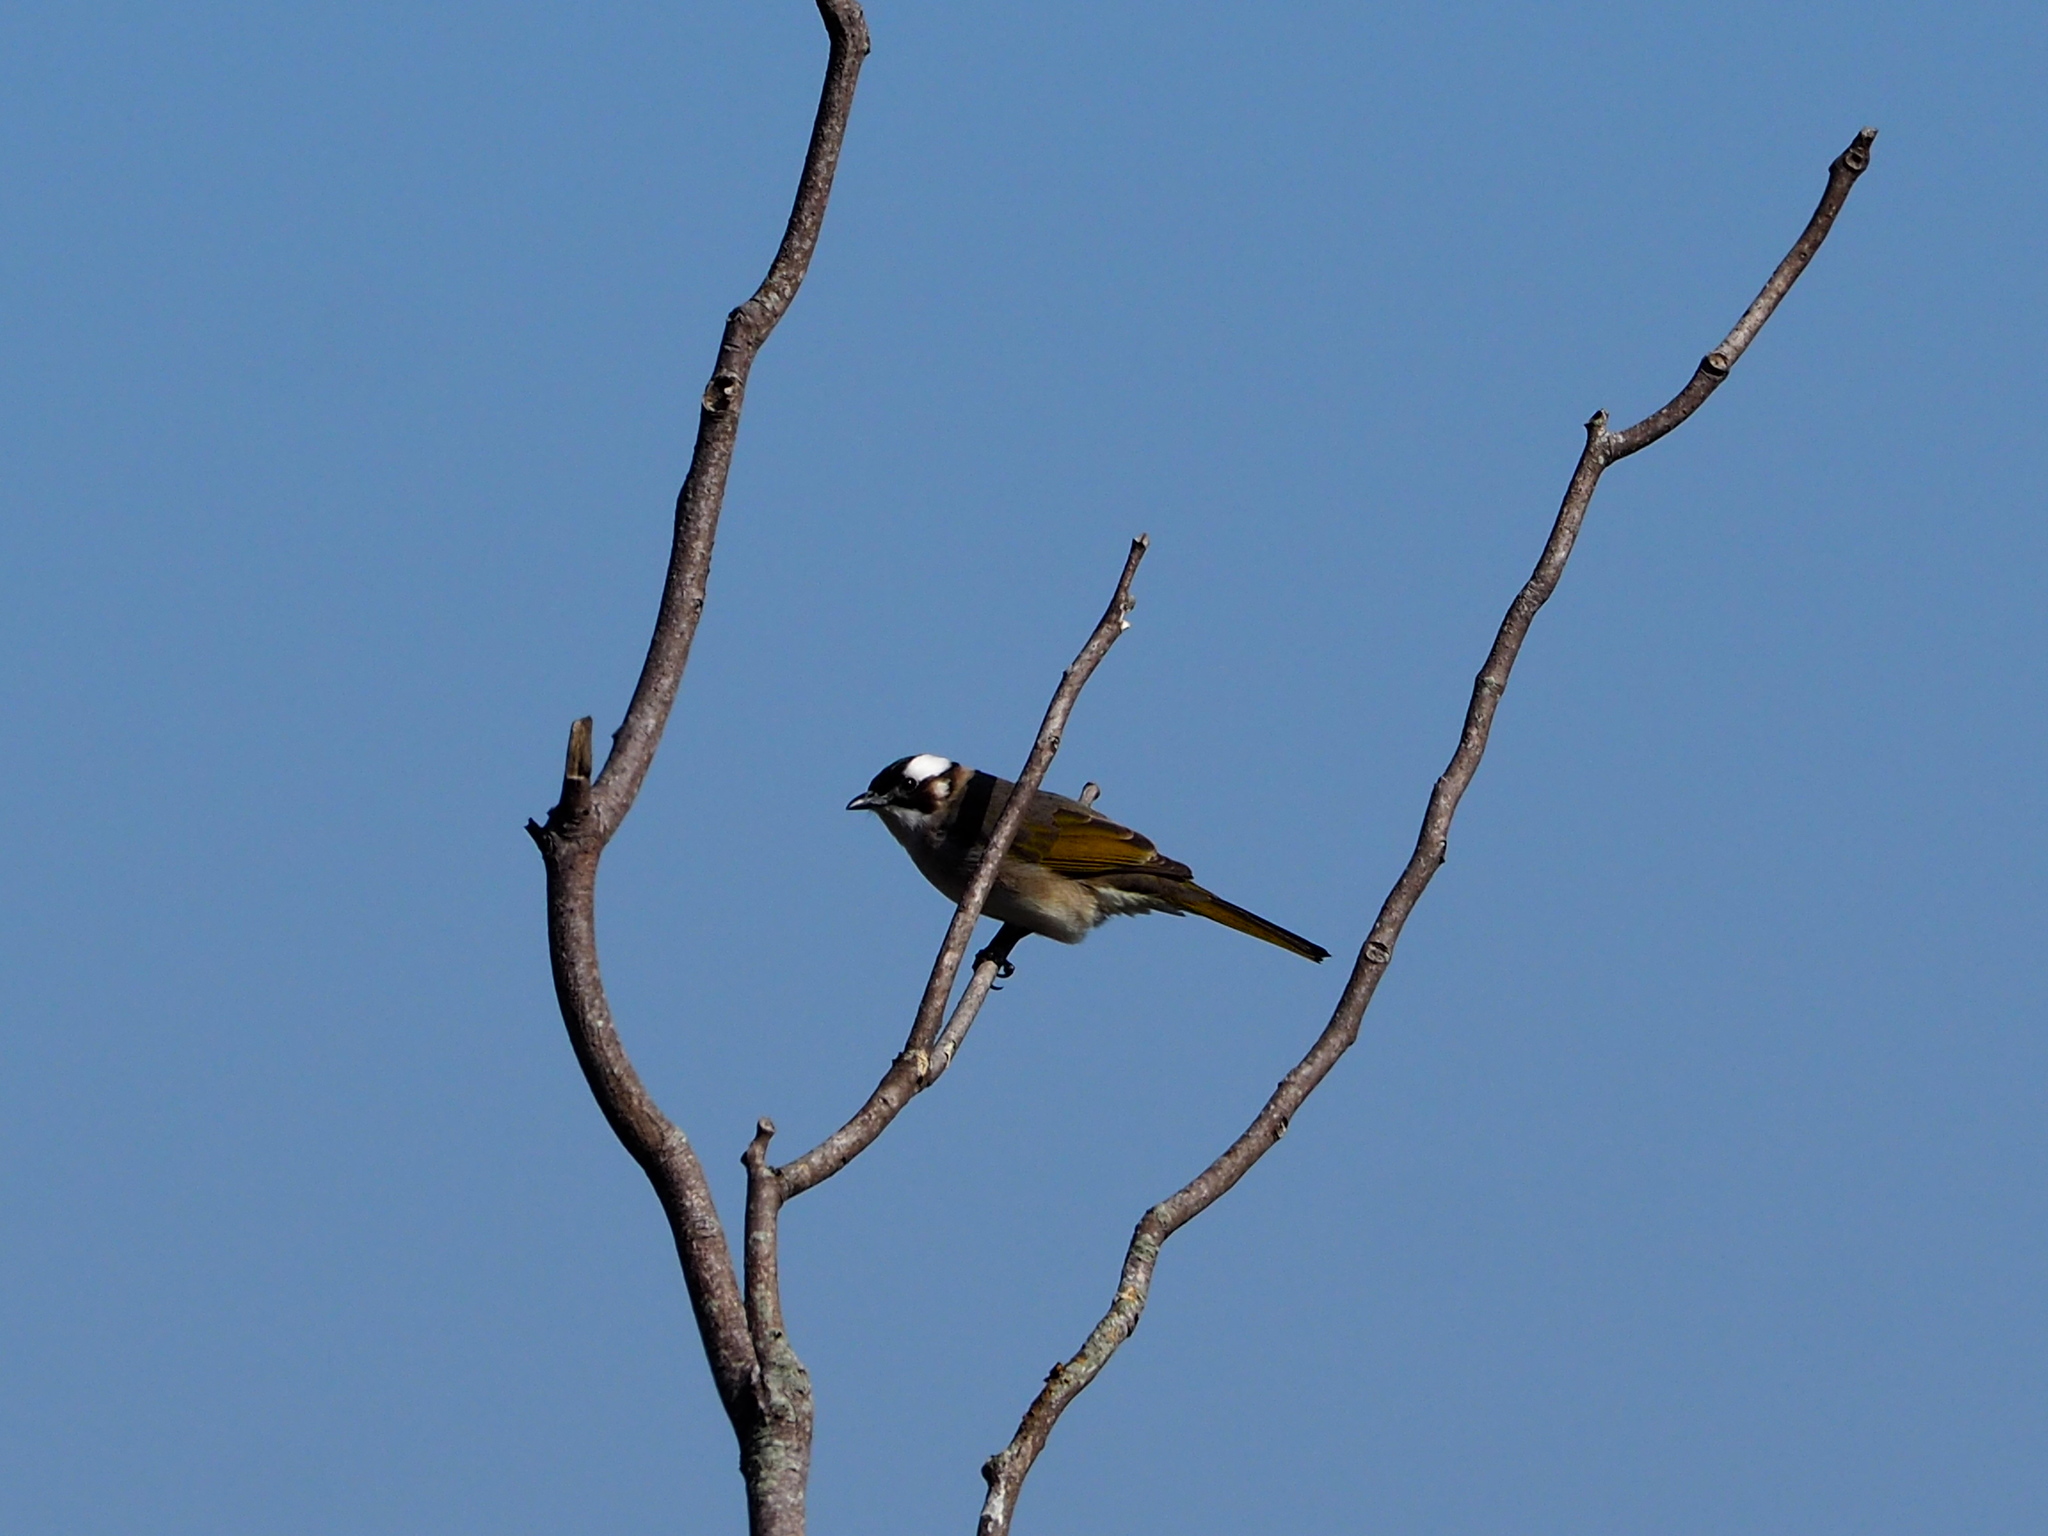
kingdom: Animalia
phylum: Chordata
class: Aves
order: Passeriformes
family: Pycnonotidae
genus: Pycnonotus
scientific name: Pycnonotus sinensis
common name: Light-vented bulbul
